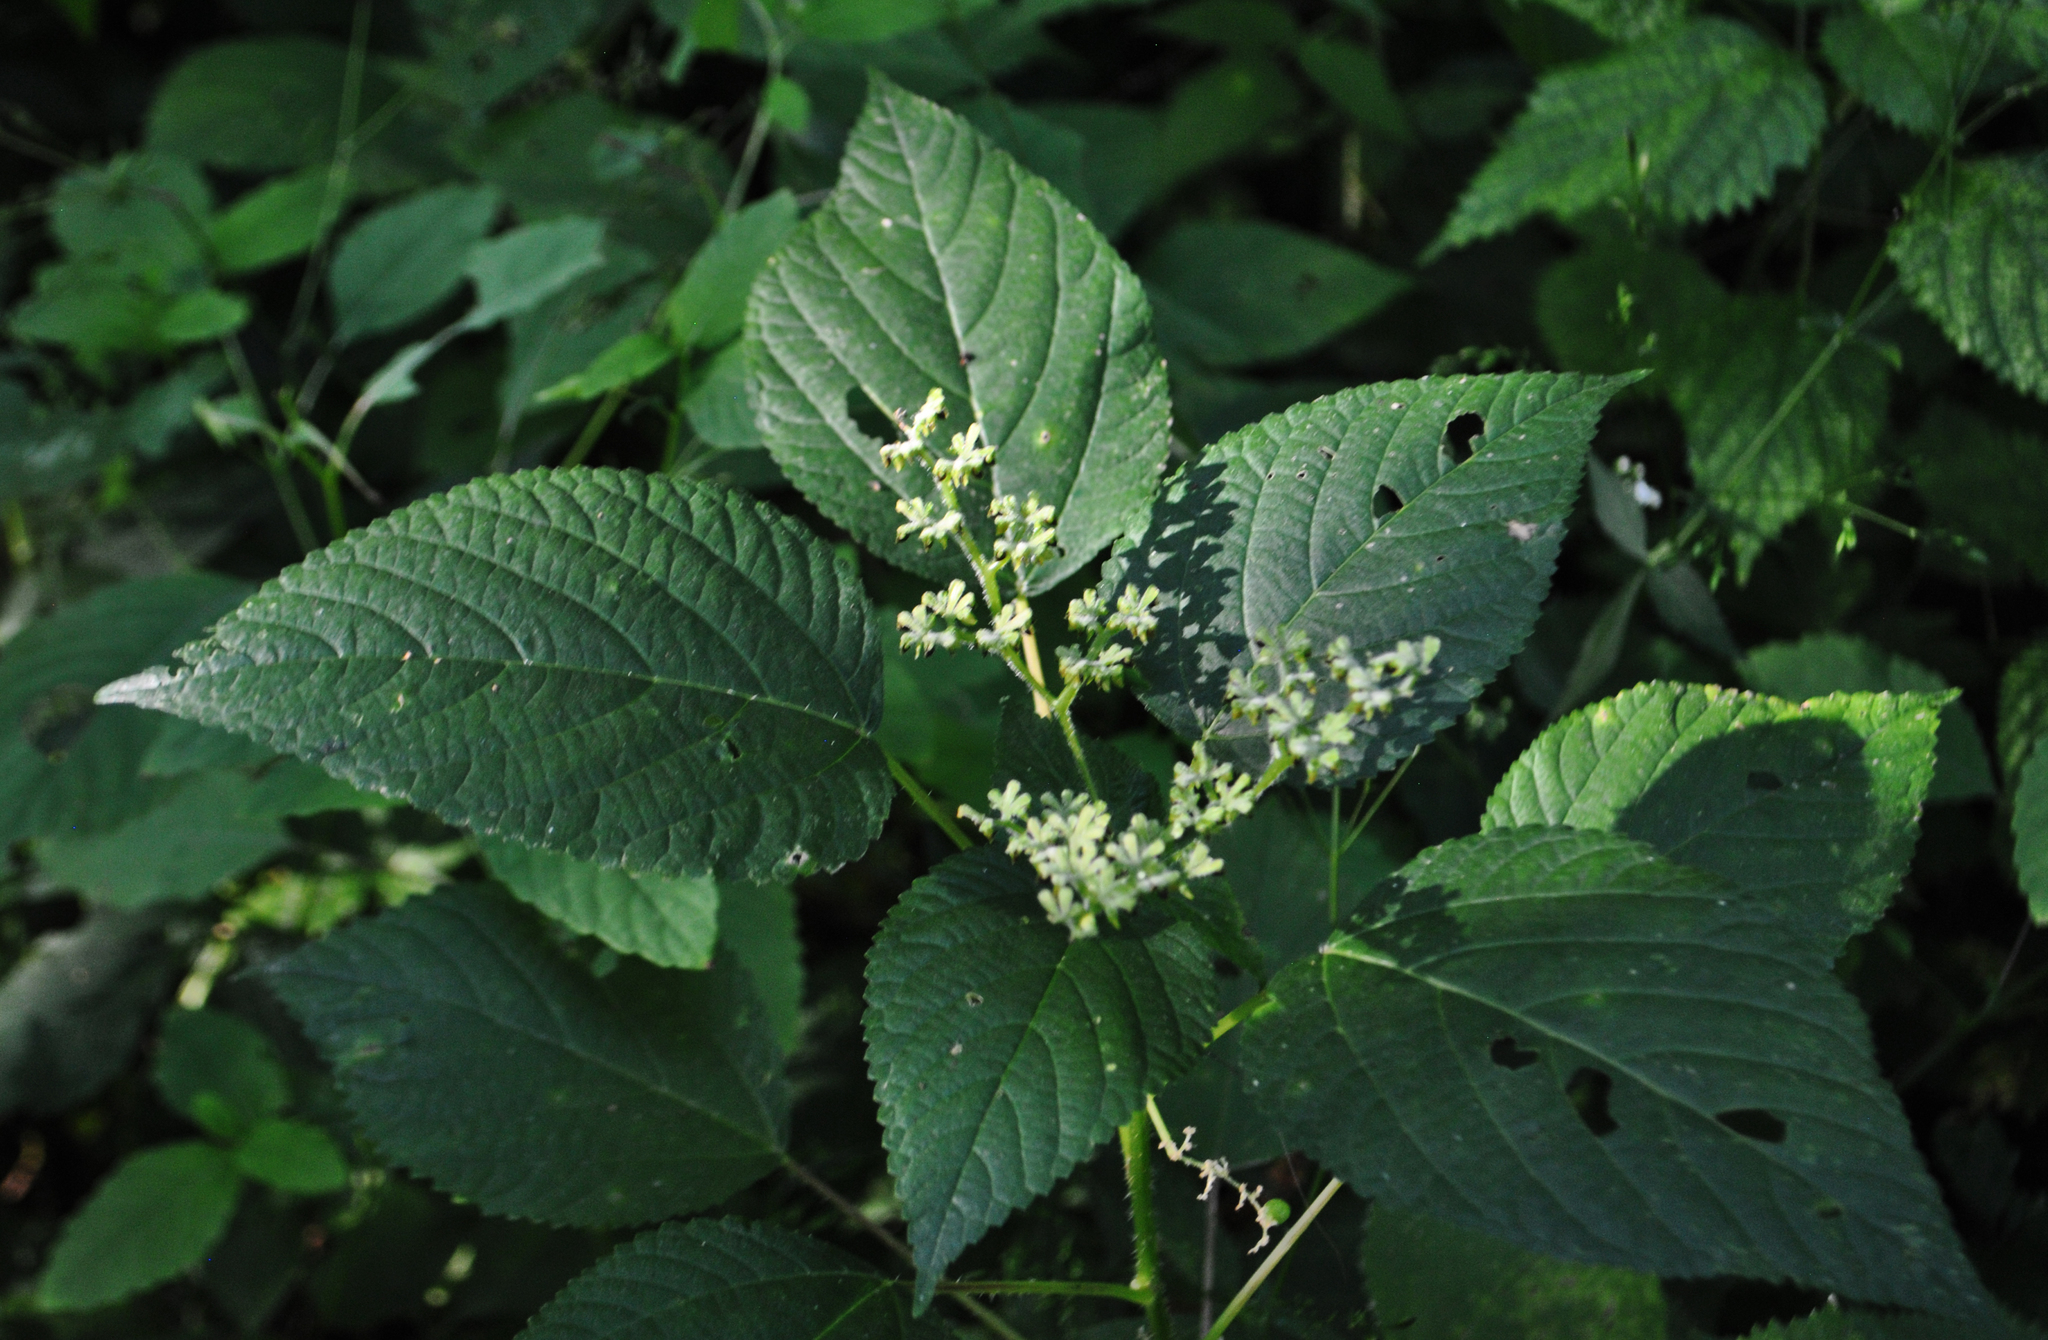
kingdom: Plantae
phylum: Tracheophyta
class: Magnoliopsida
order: Rosales
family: Urticaceae
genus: Laportea
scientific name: Laportea canadensis
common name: Canada nettle
